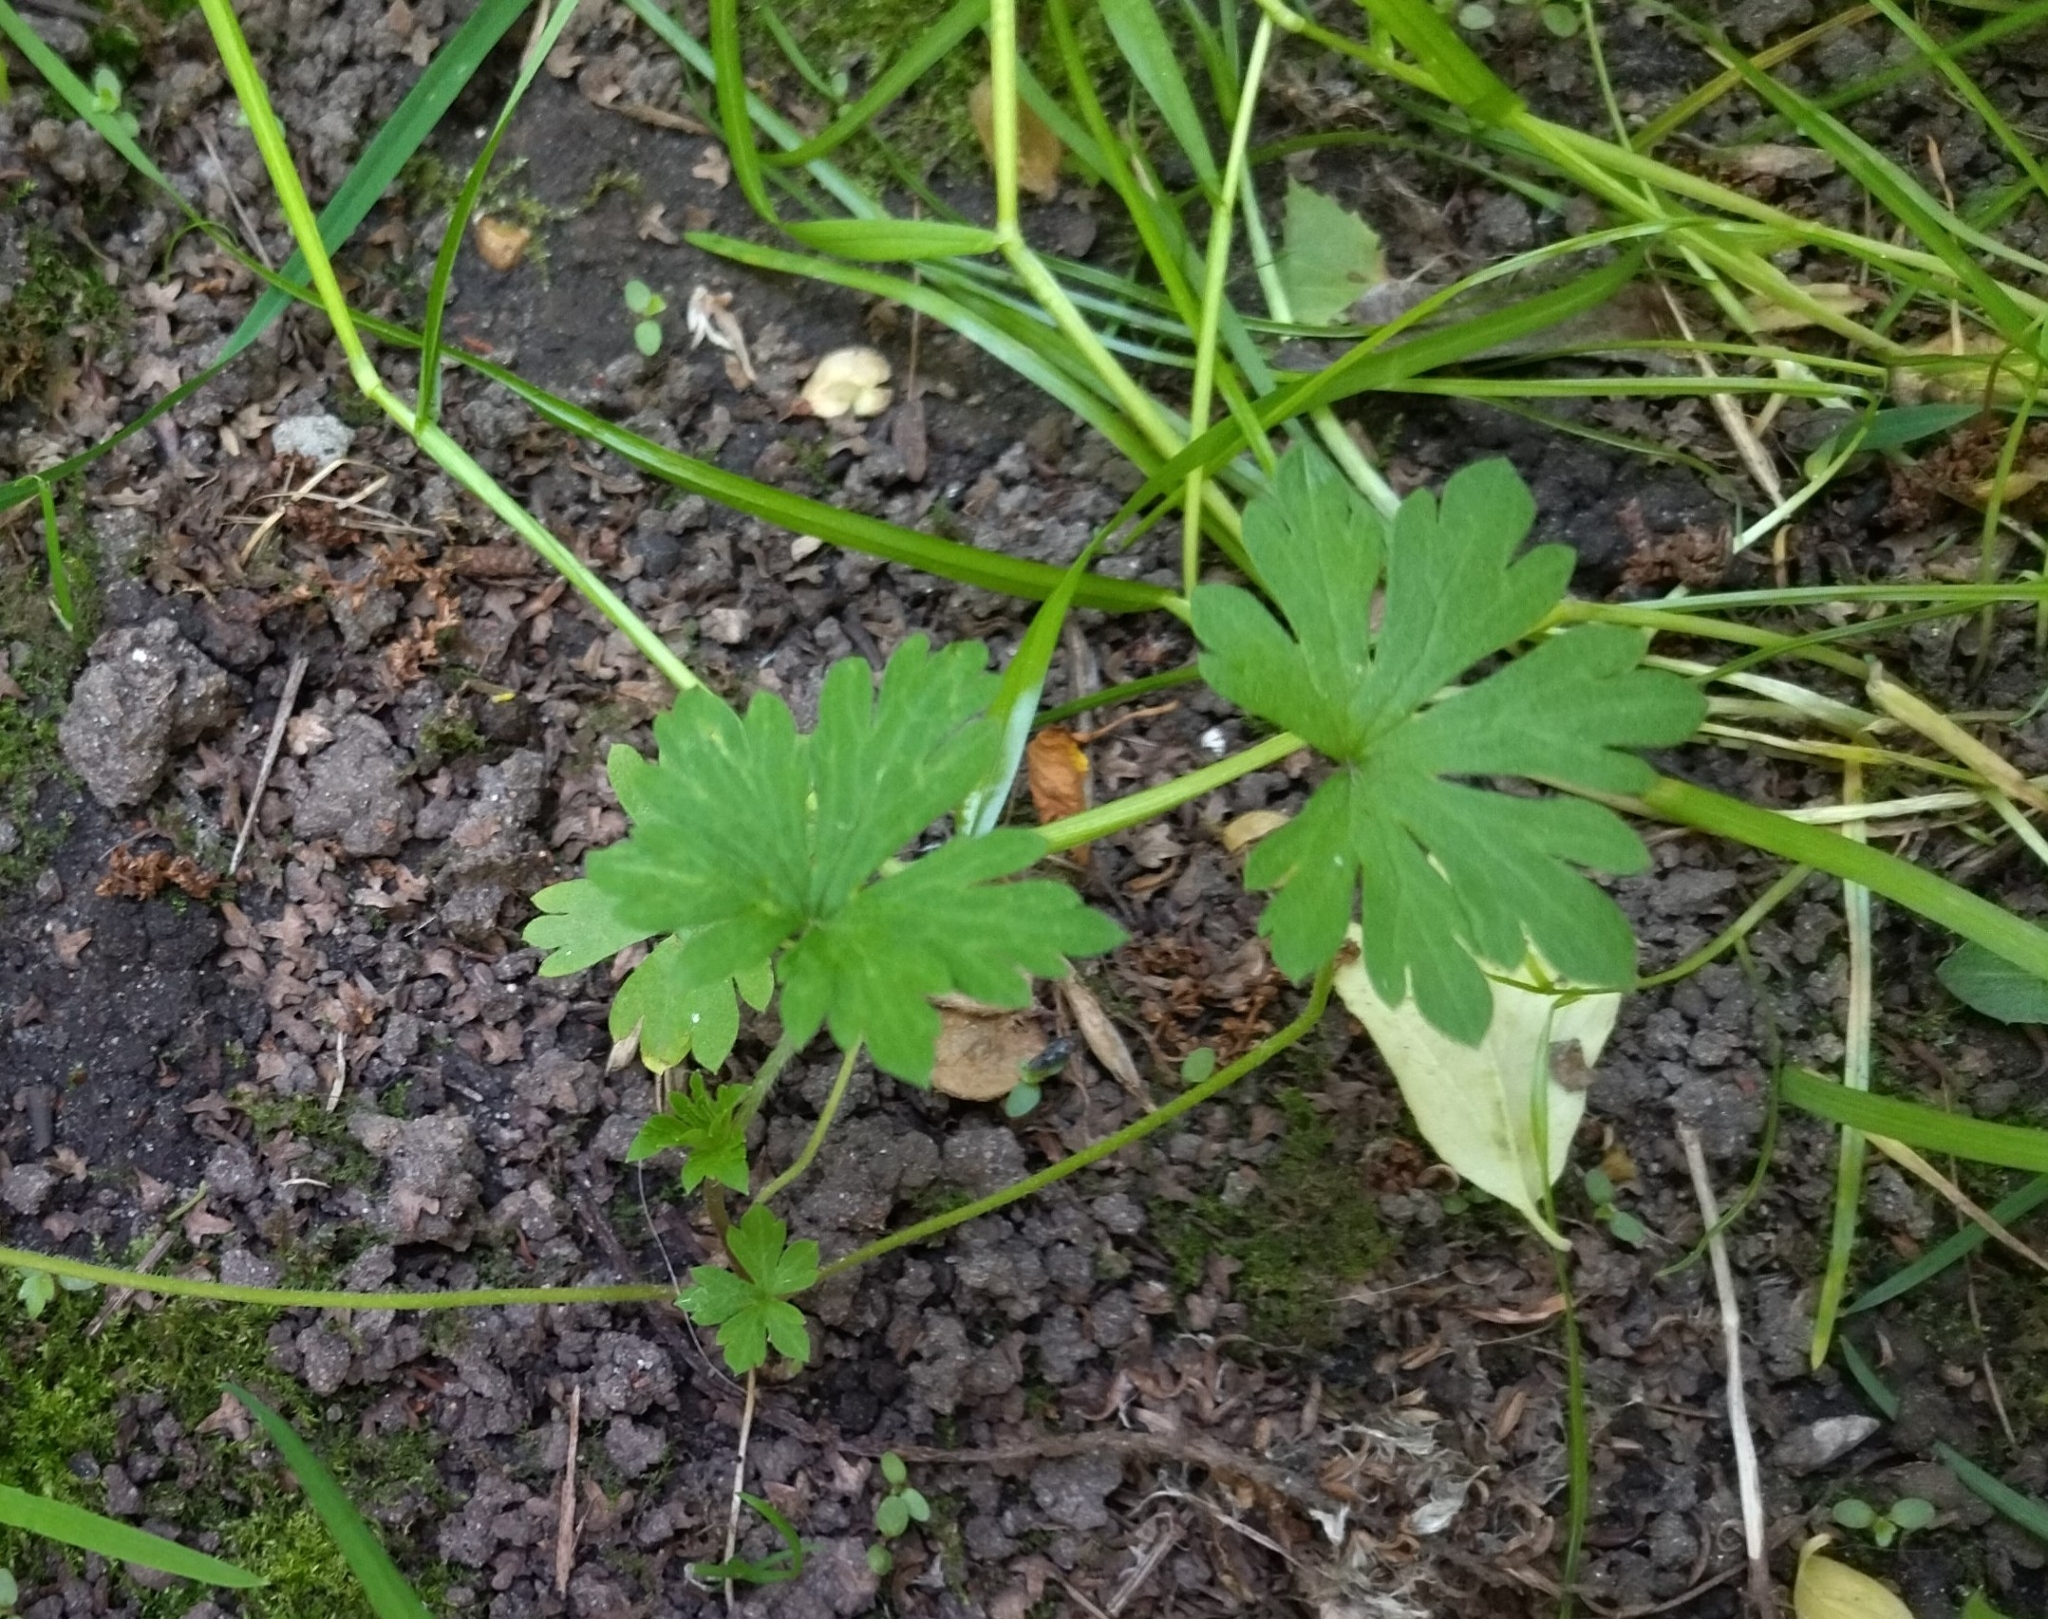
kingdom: Plantae
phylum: Tracheophyta
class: Magnoliopsida
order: Geraniales
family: Geraniaceae
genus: Geranium
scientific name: Geranium sibiricum
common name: Siberian crane's-bill
